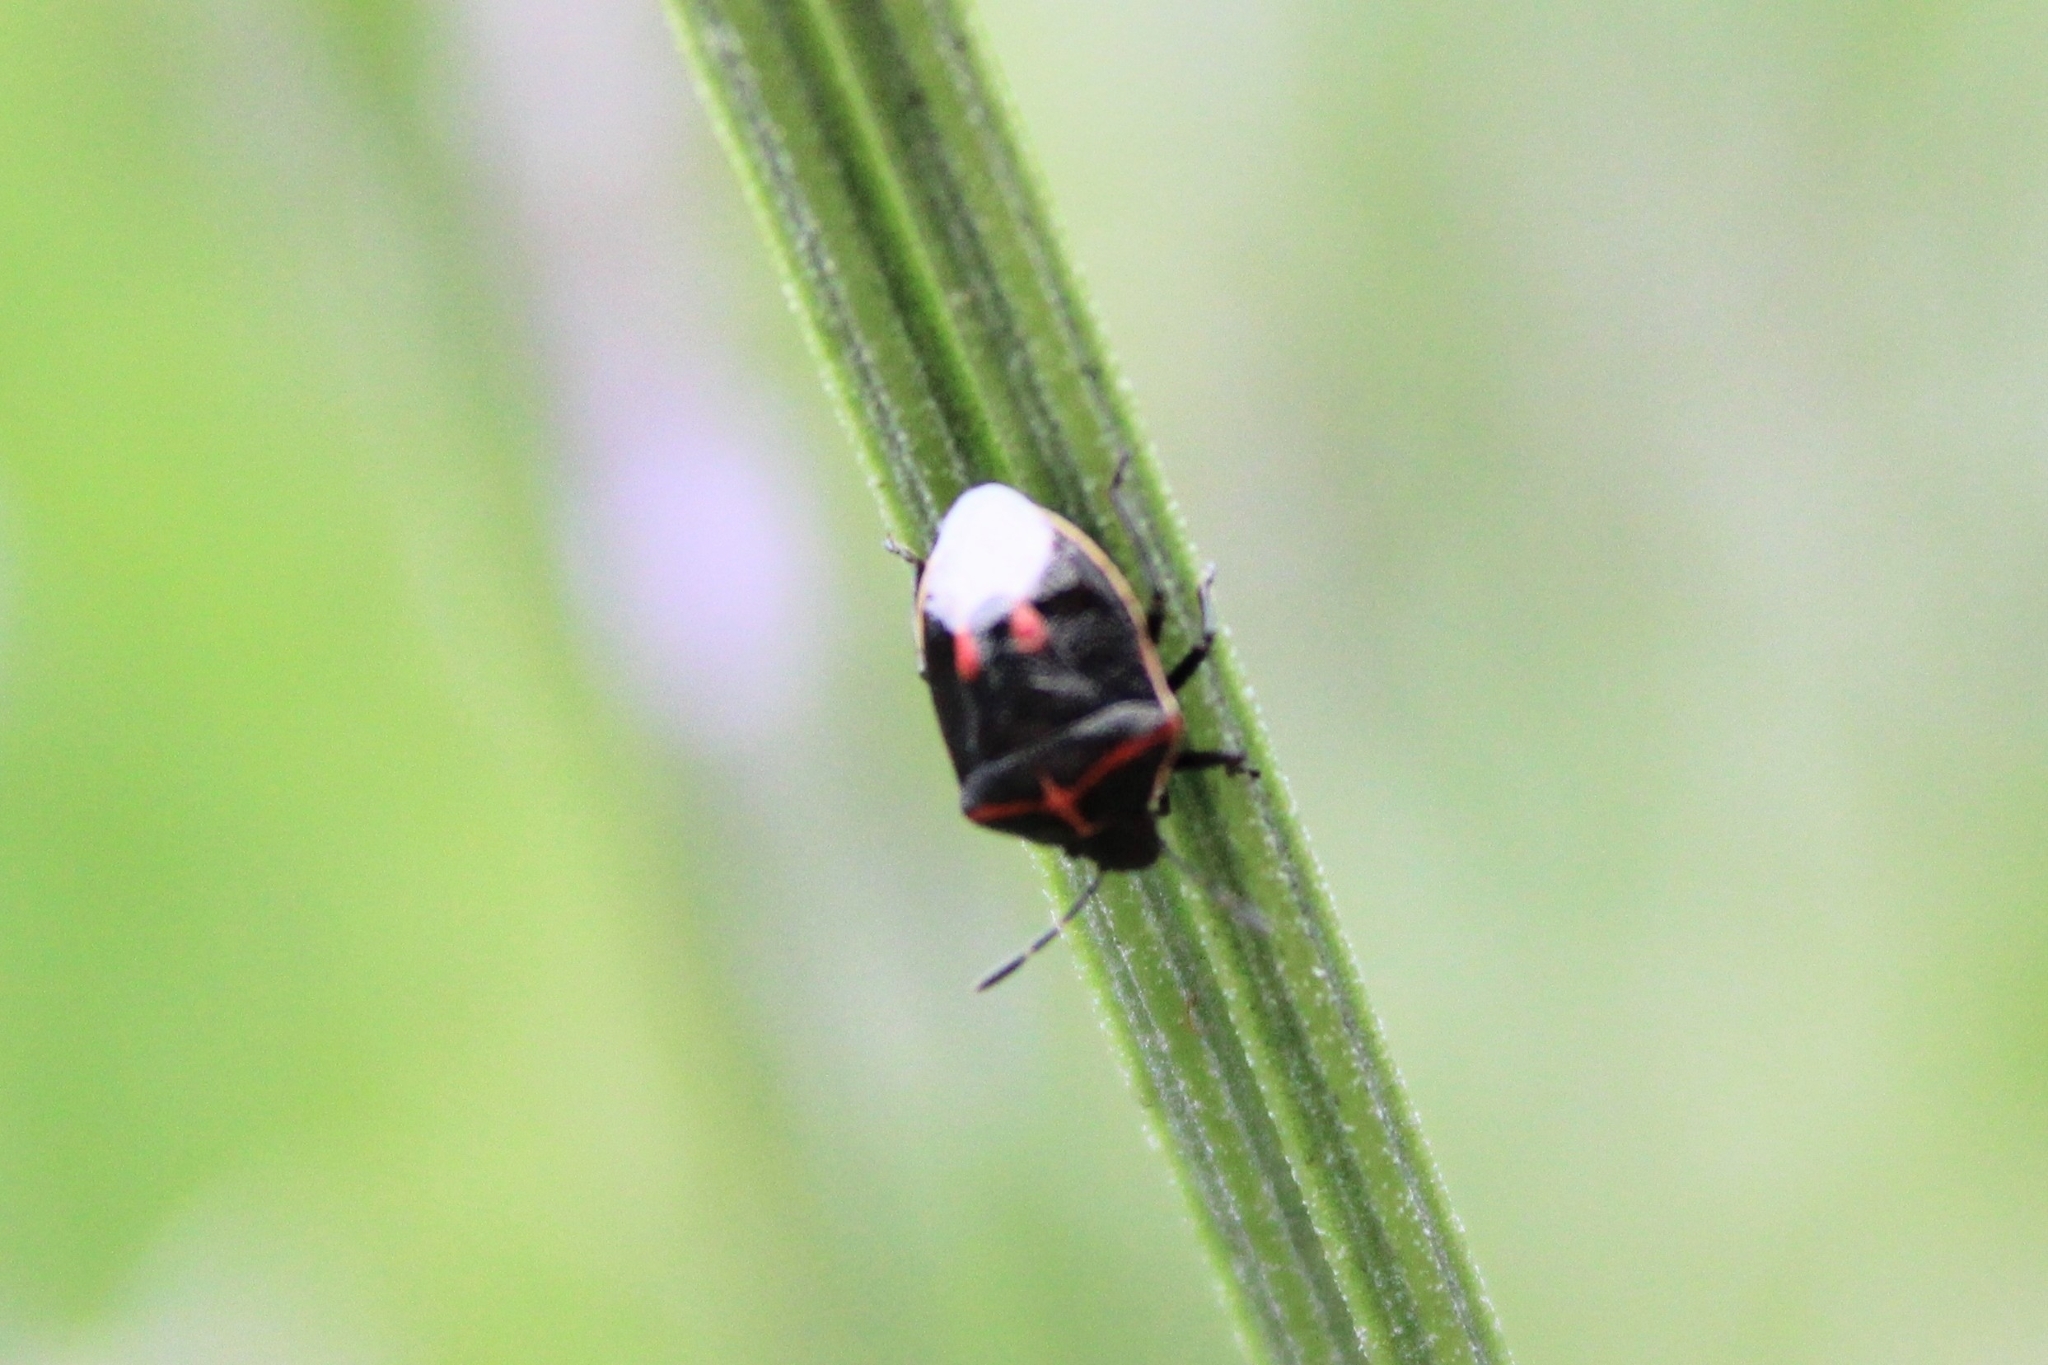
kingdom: Animalia
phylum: Arthropoda
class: Insecta
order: Hemiptera
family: Pentatomidae
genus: Cosmopepla
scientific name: Cosmopepla lintneriana
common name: Twice-stabbed stink bug
